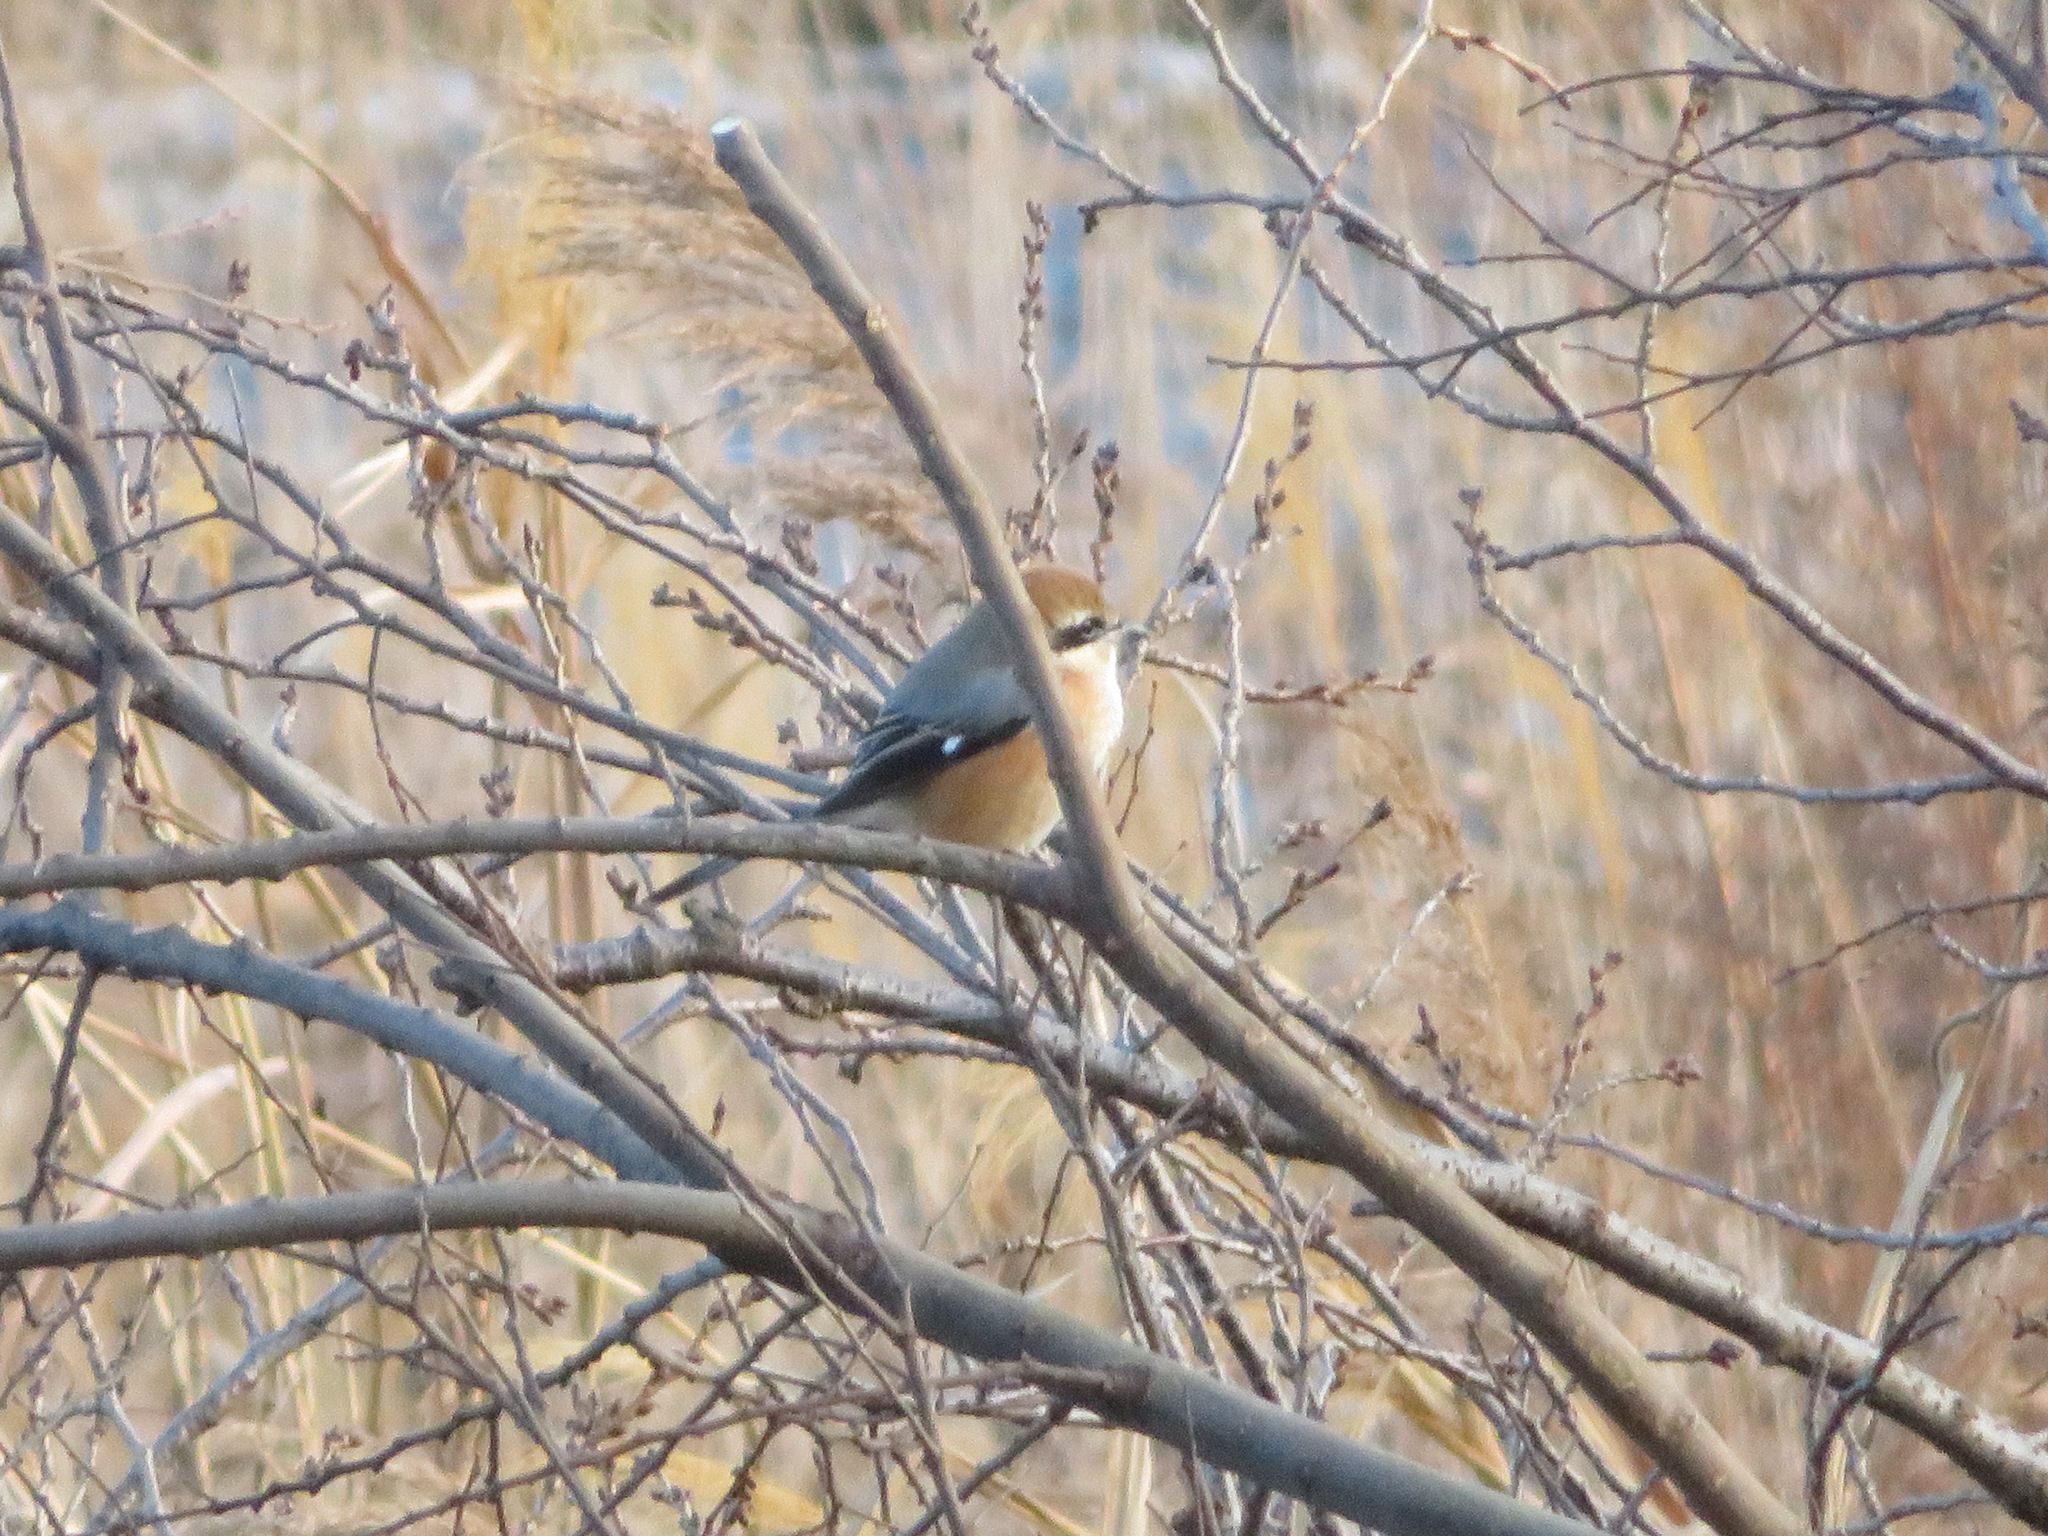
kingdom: Animalia
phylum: Chordata
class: Aves
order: Passeriformes
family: Laniidae
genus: Lanius
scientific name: Lanius bucephalus
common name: Bull-headed shrike
